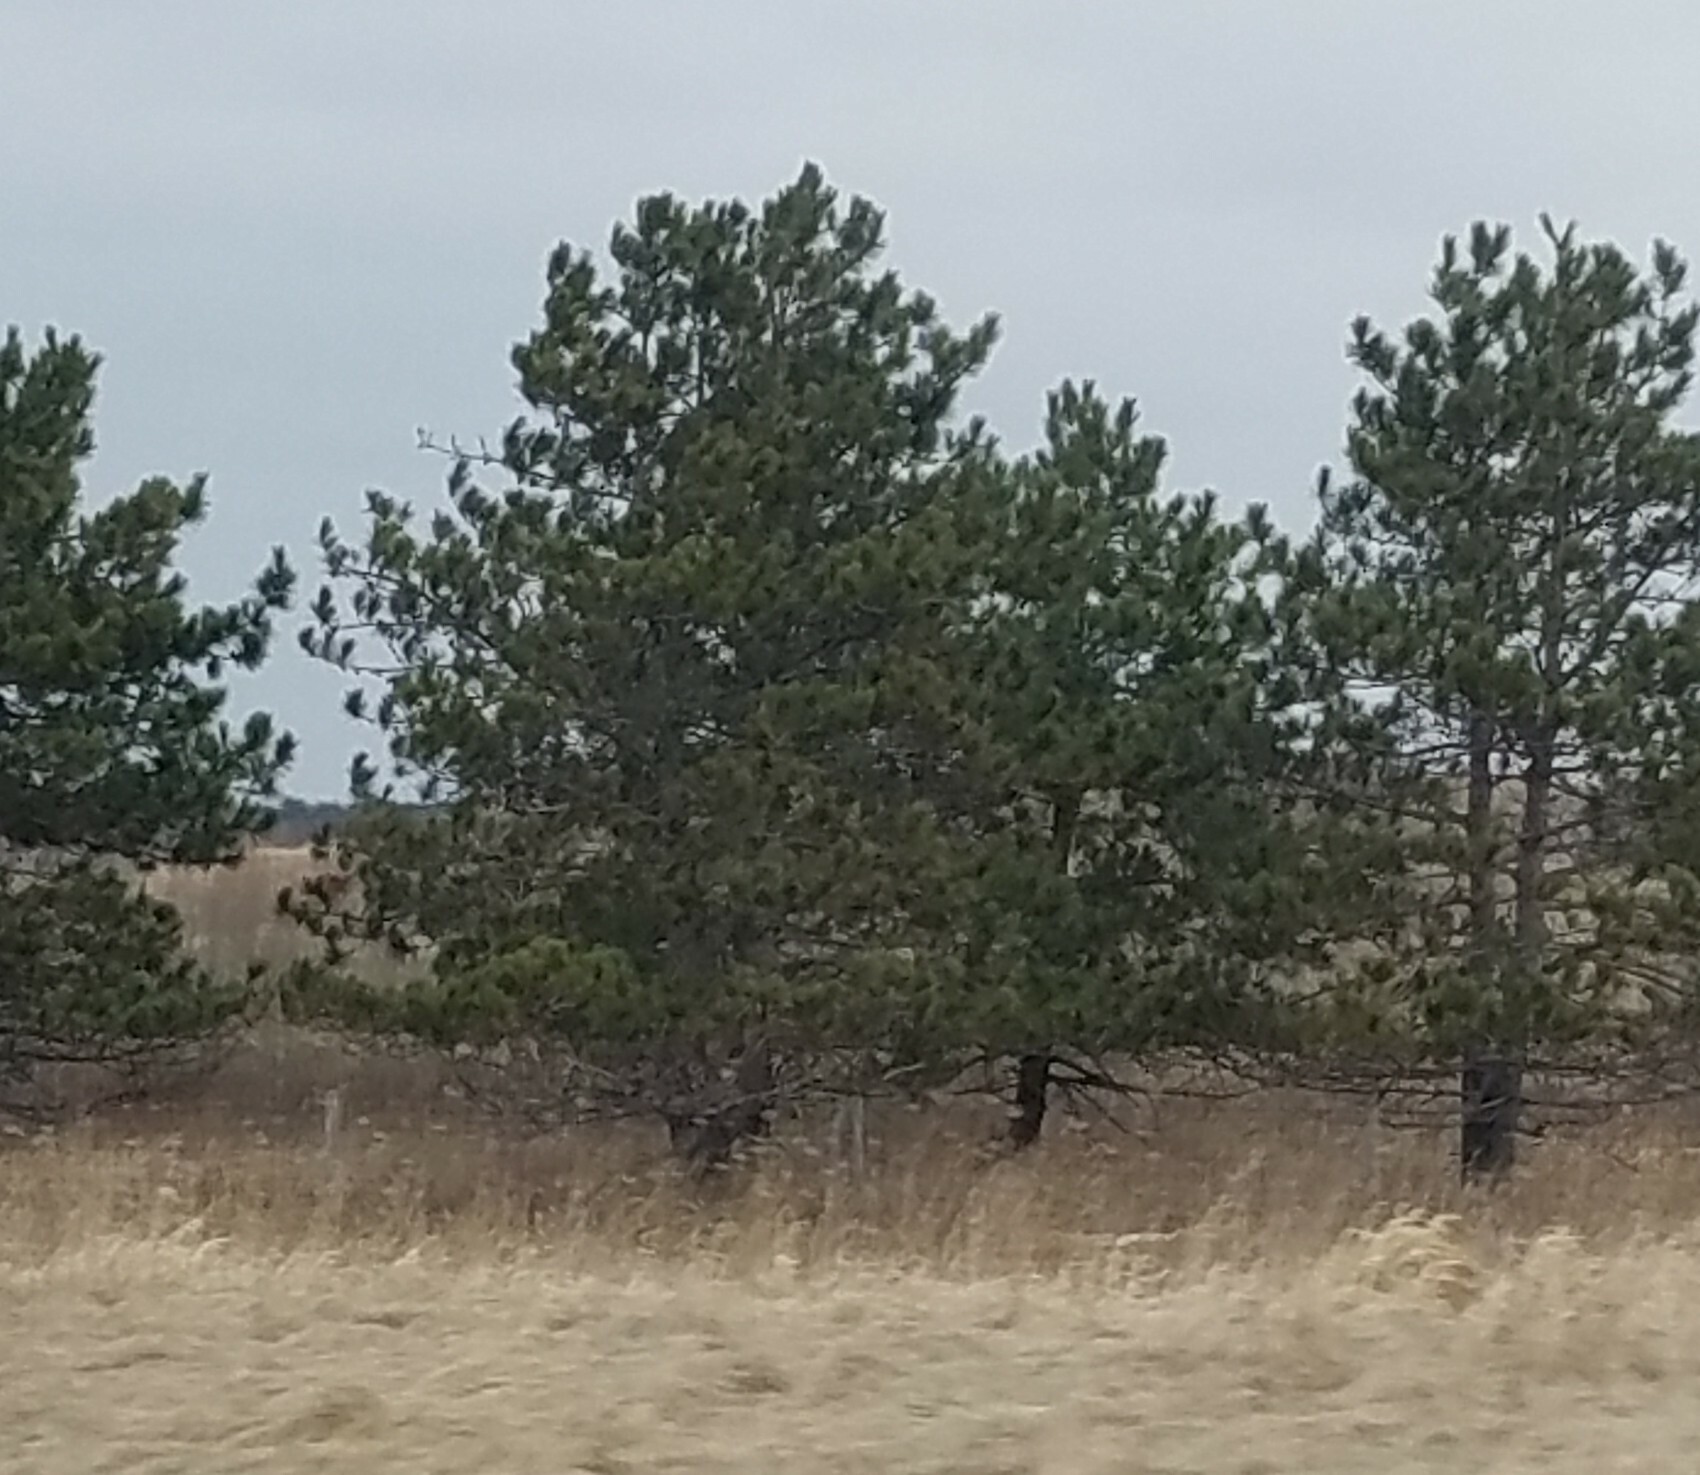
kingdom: Plantae
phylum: Tracheophyta
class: Pinopsida
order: Pinales
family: Pinaceae
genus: Pinus
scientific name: Pinus resinosa
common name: Norway pine
